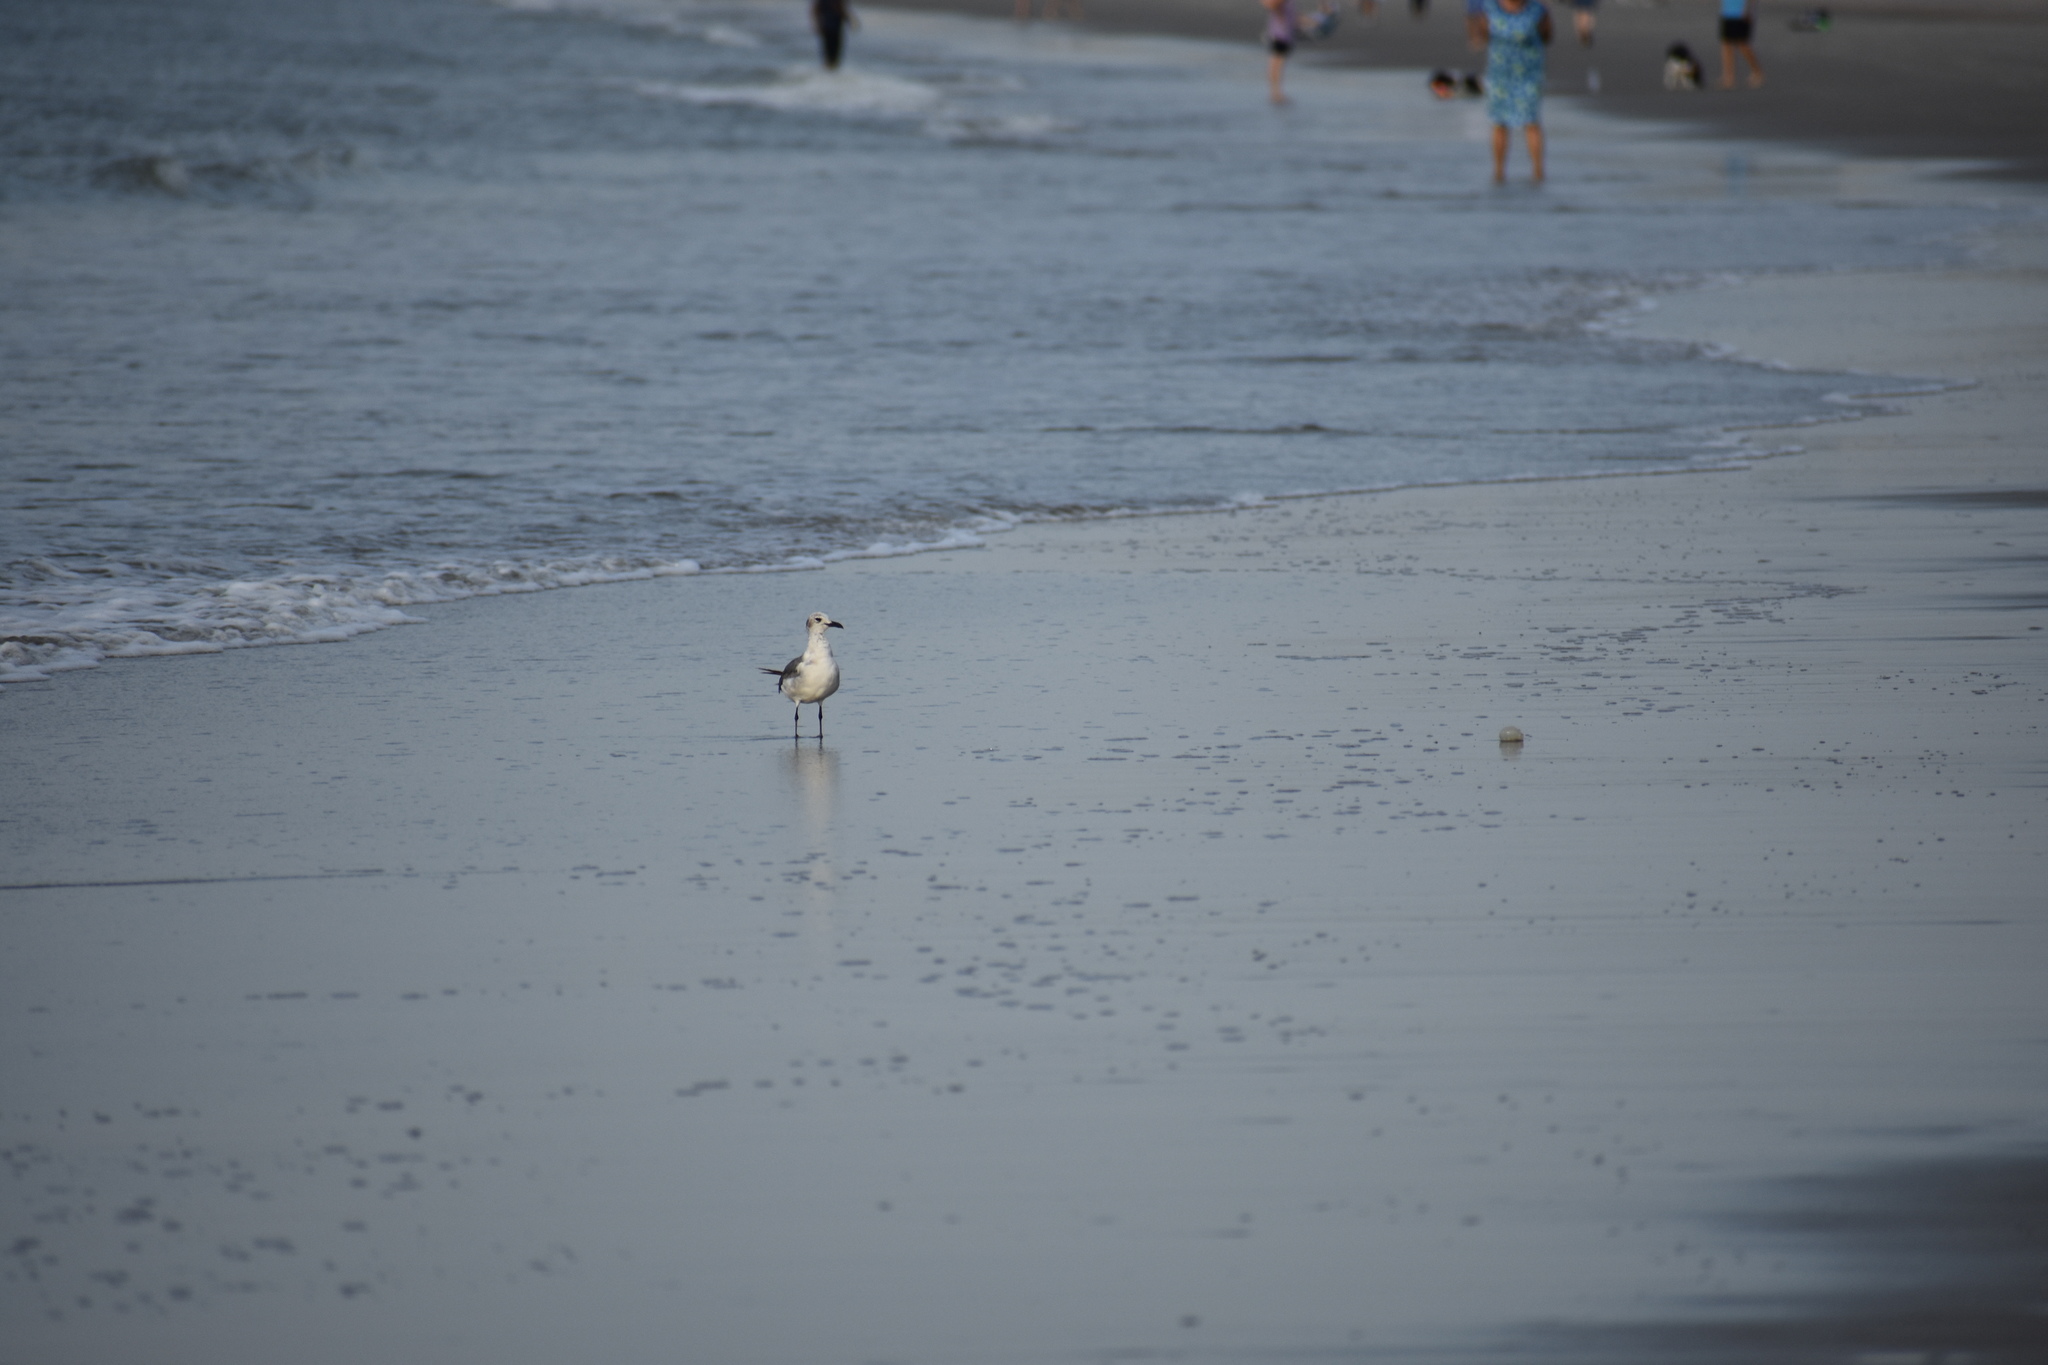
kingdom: Animalia
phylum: Chordata
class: Aves
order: Charadriiformes
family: Laridae
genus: Leucophaeus
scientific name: Leucophaeus atricilla
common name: Laughing gull
